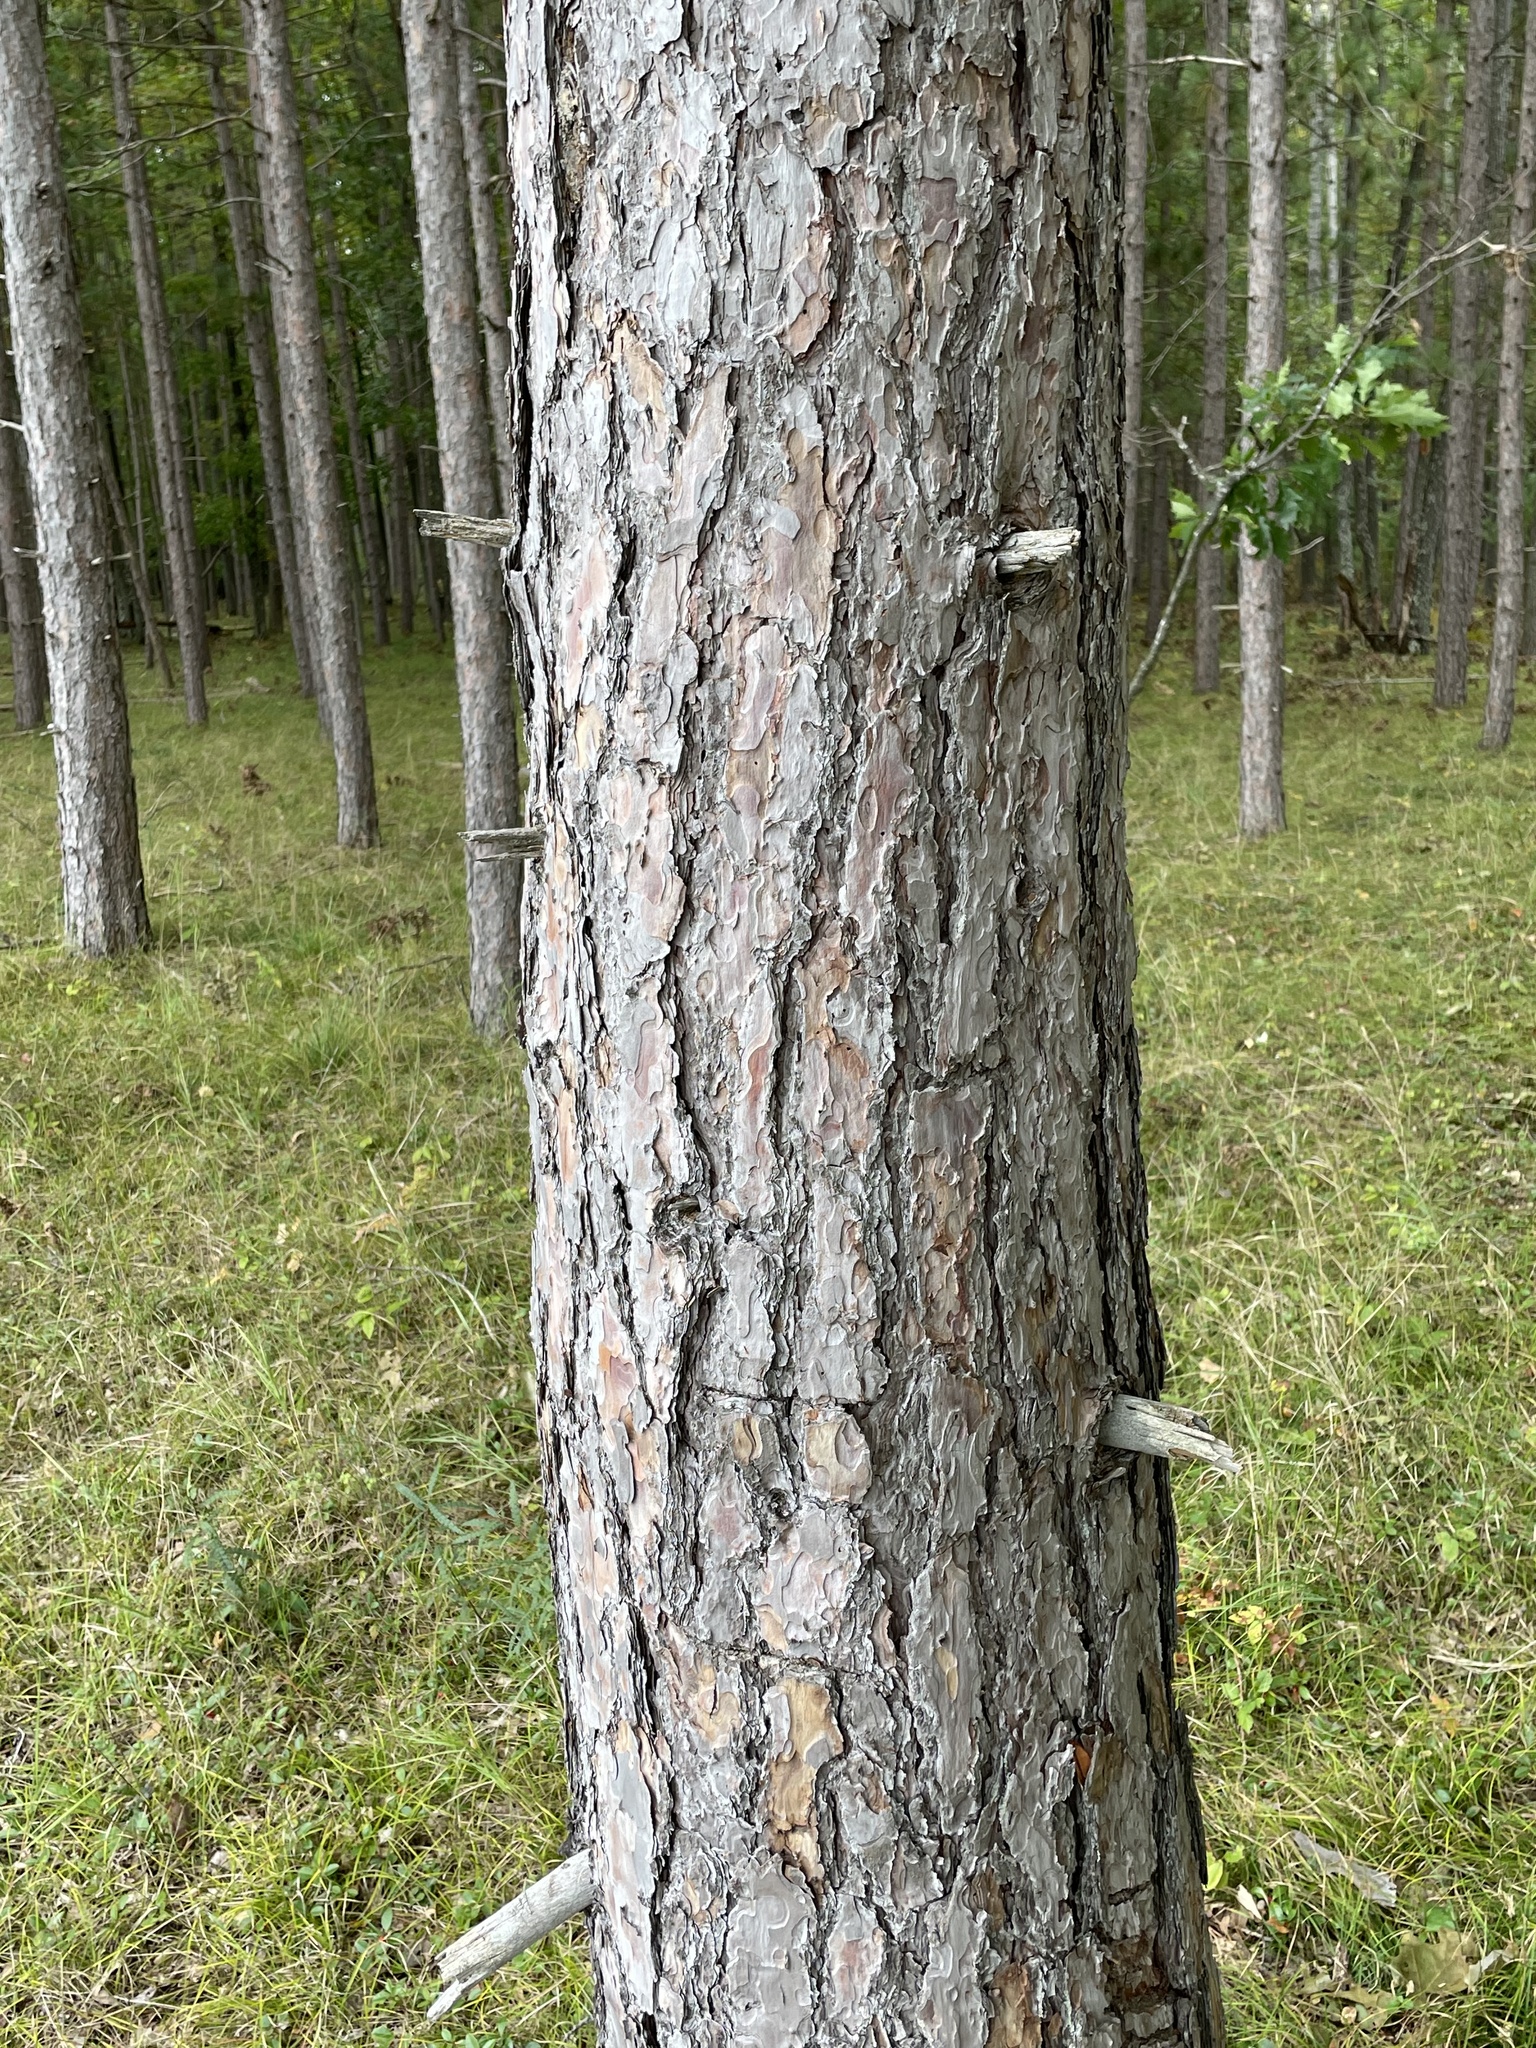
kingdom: Plantae
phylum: Tracheophyta
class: Pinopsida
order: Pinales
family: Pinaceae
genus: Pinus
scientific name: Pinus resinosa
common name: Norway pine
